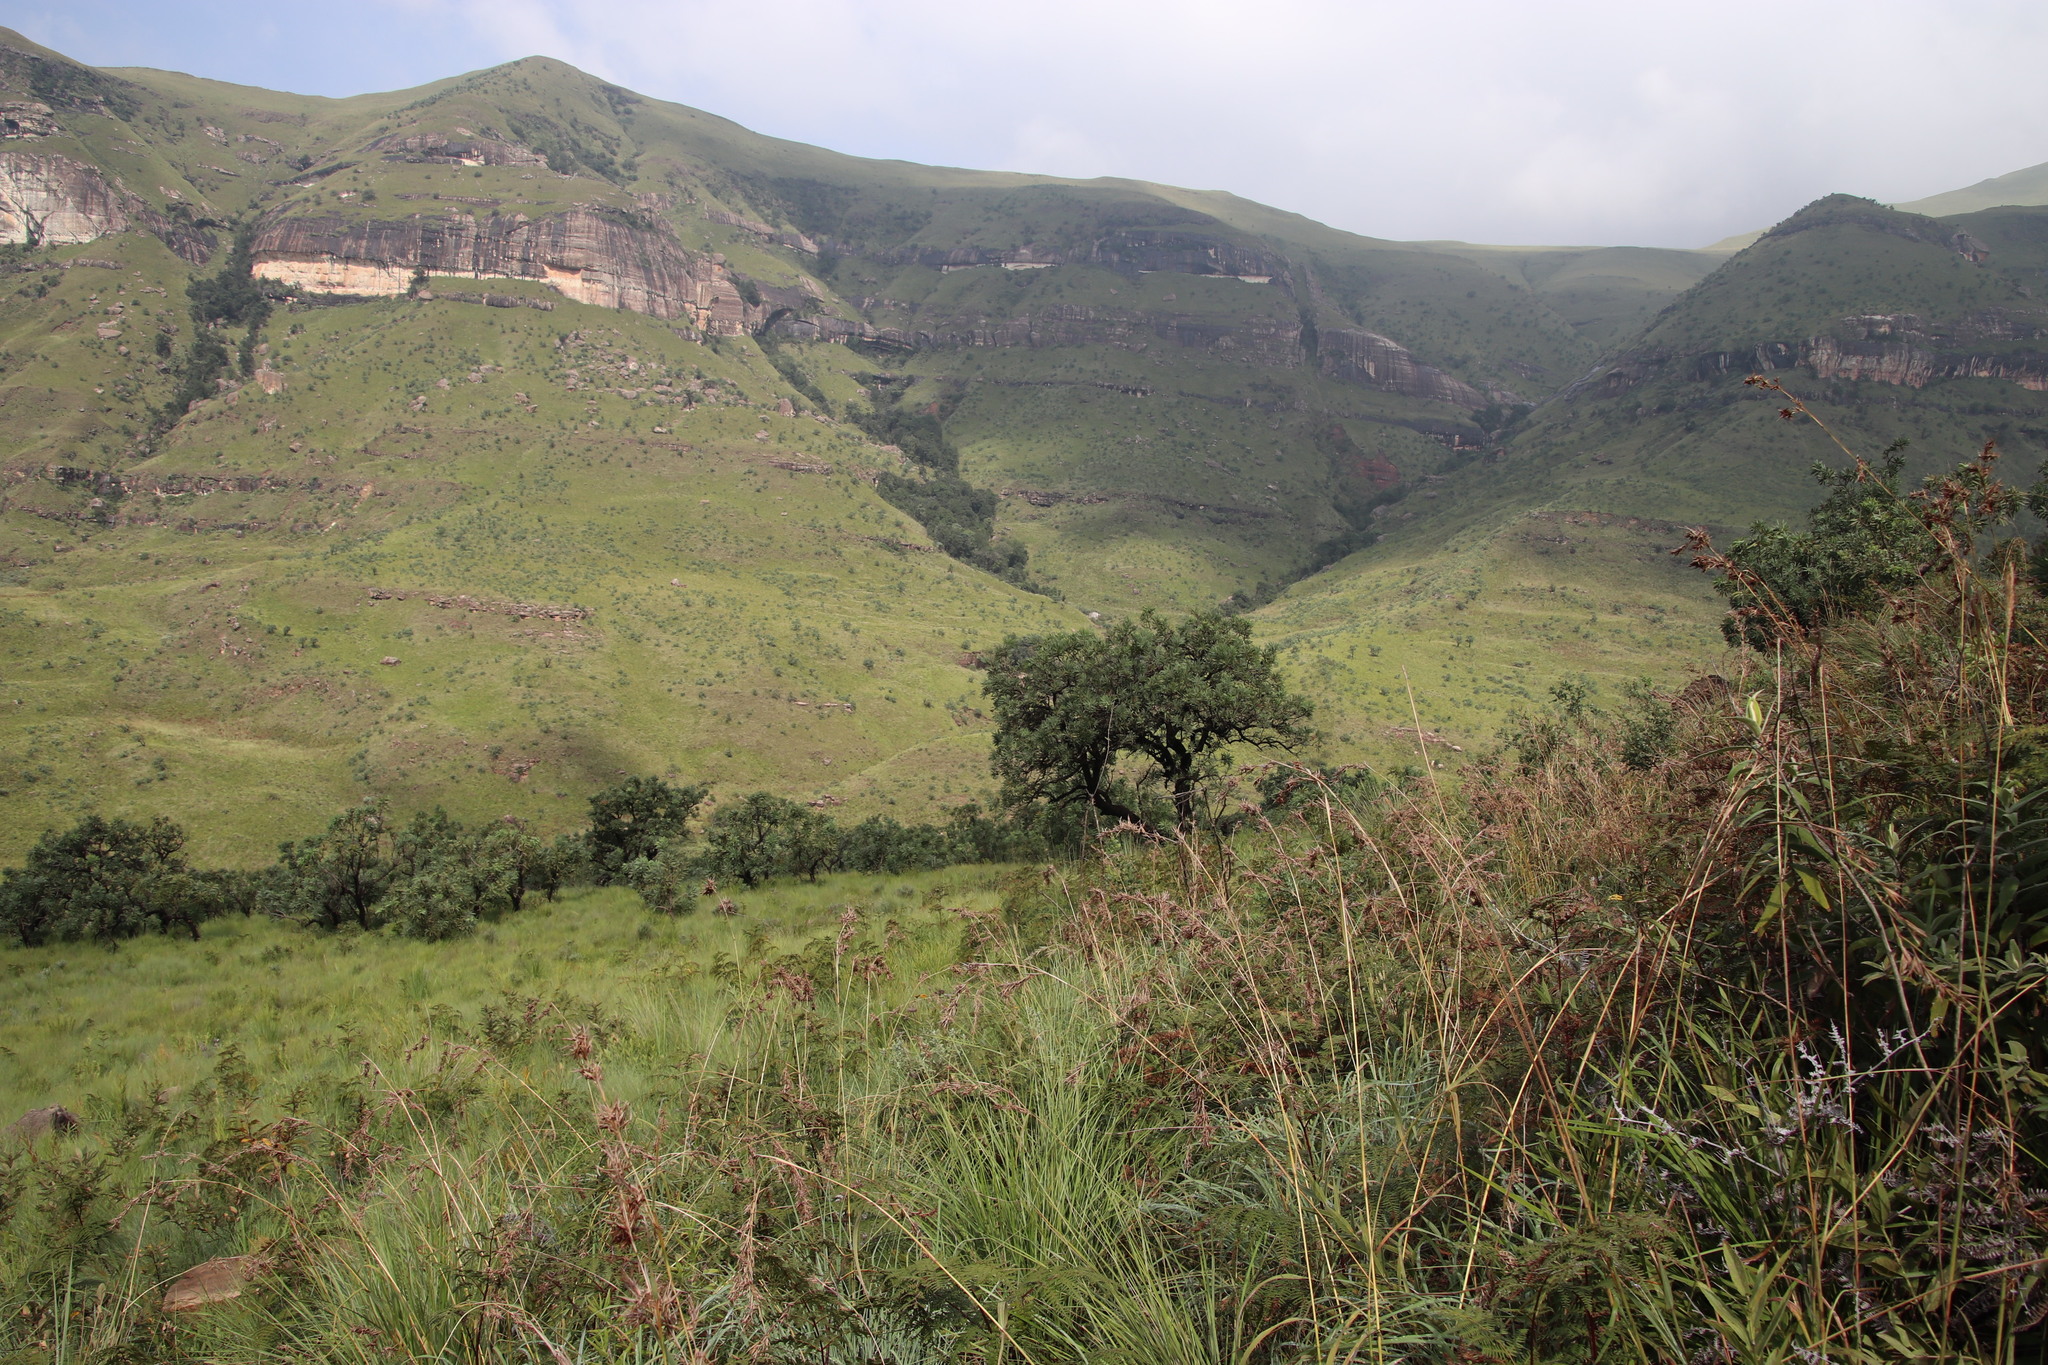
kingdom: Plantae
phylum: Tracheophyta
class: Polypodiopsida
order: Polypodiales
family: Dennstaedtiaceae
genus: Pteridium
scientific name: Pteridium aquilinum
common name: Bracken
